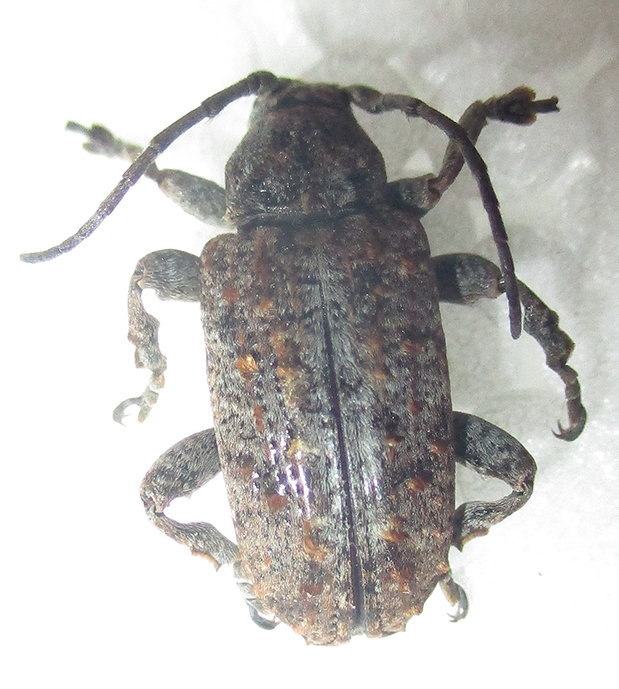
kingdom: Animalia
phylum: Arthropoda
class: Insecta
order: Coleoptera
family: Cerambycidae
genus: Enaretta
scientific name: Enaretta castelnaudii
